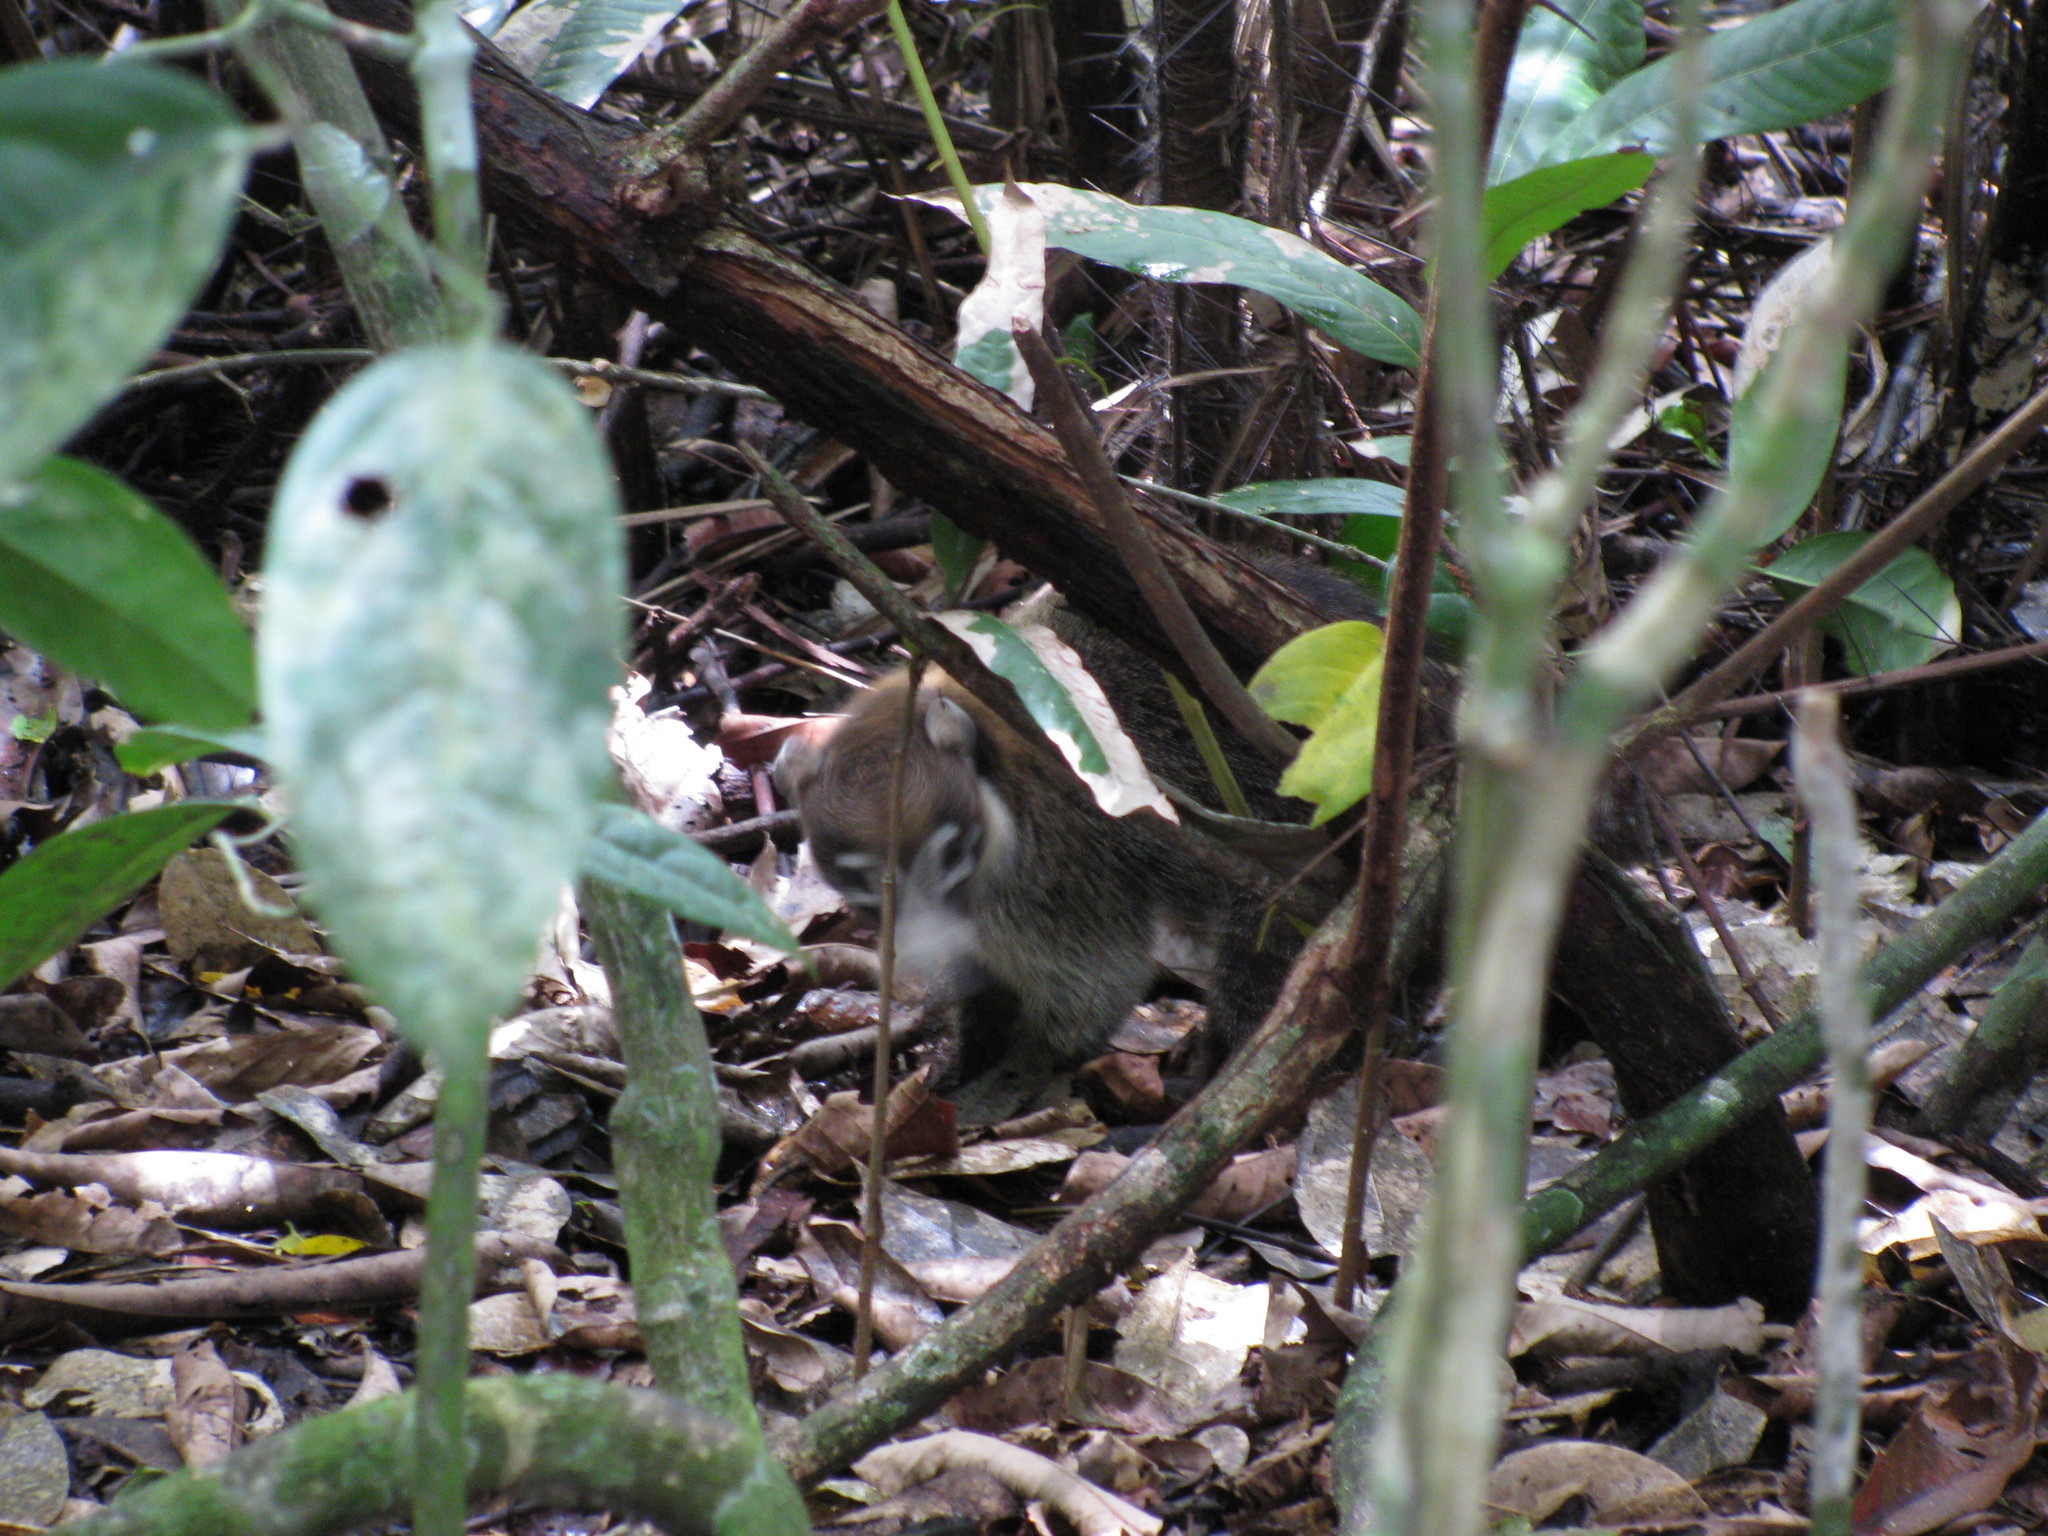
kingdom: Animalia
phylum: Chordata
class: Mammalia
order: Carnivora
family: Procyonidae
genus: Nasua
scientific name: Nasua narica
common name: White-nosed coati
